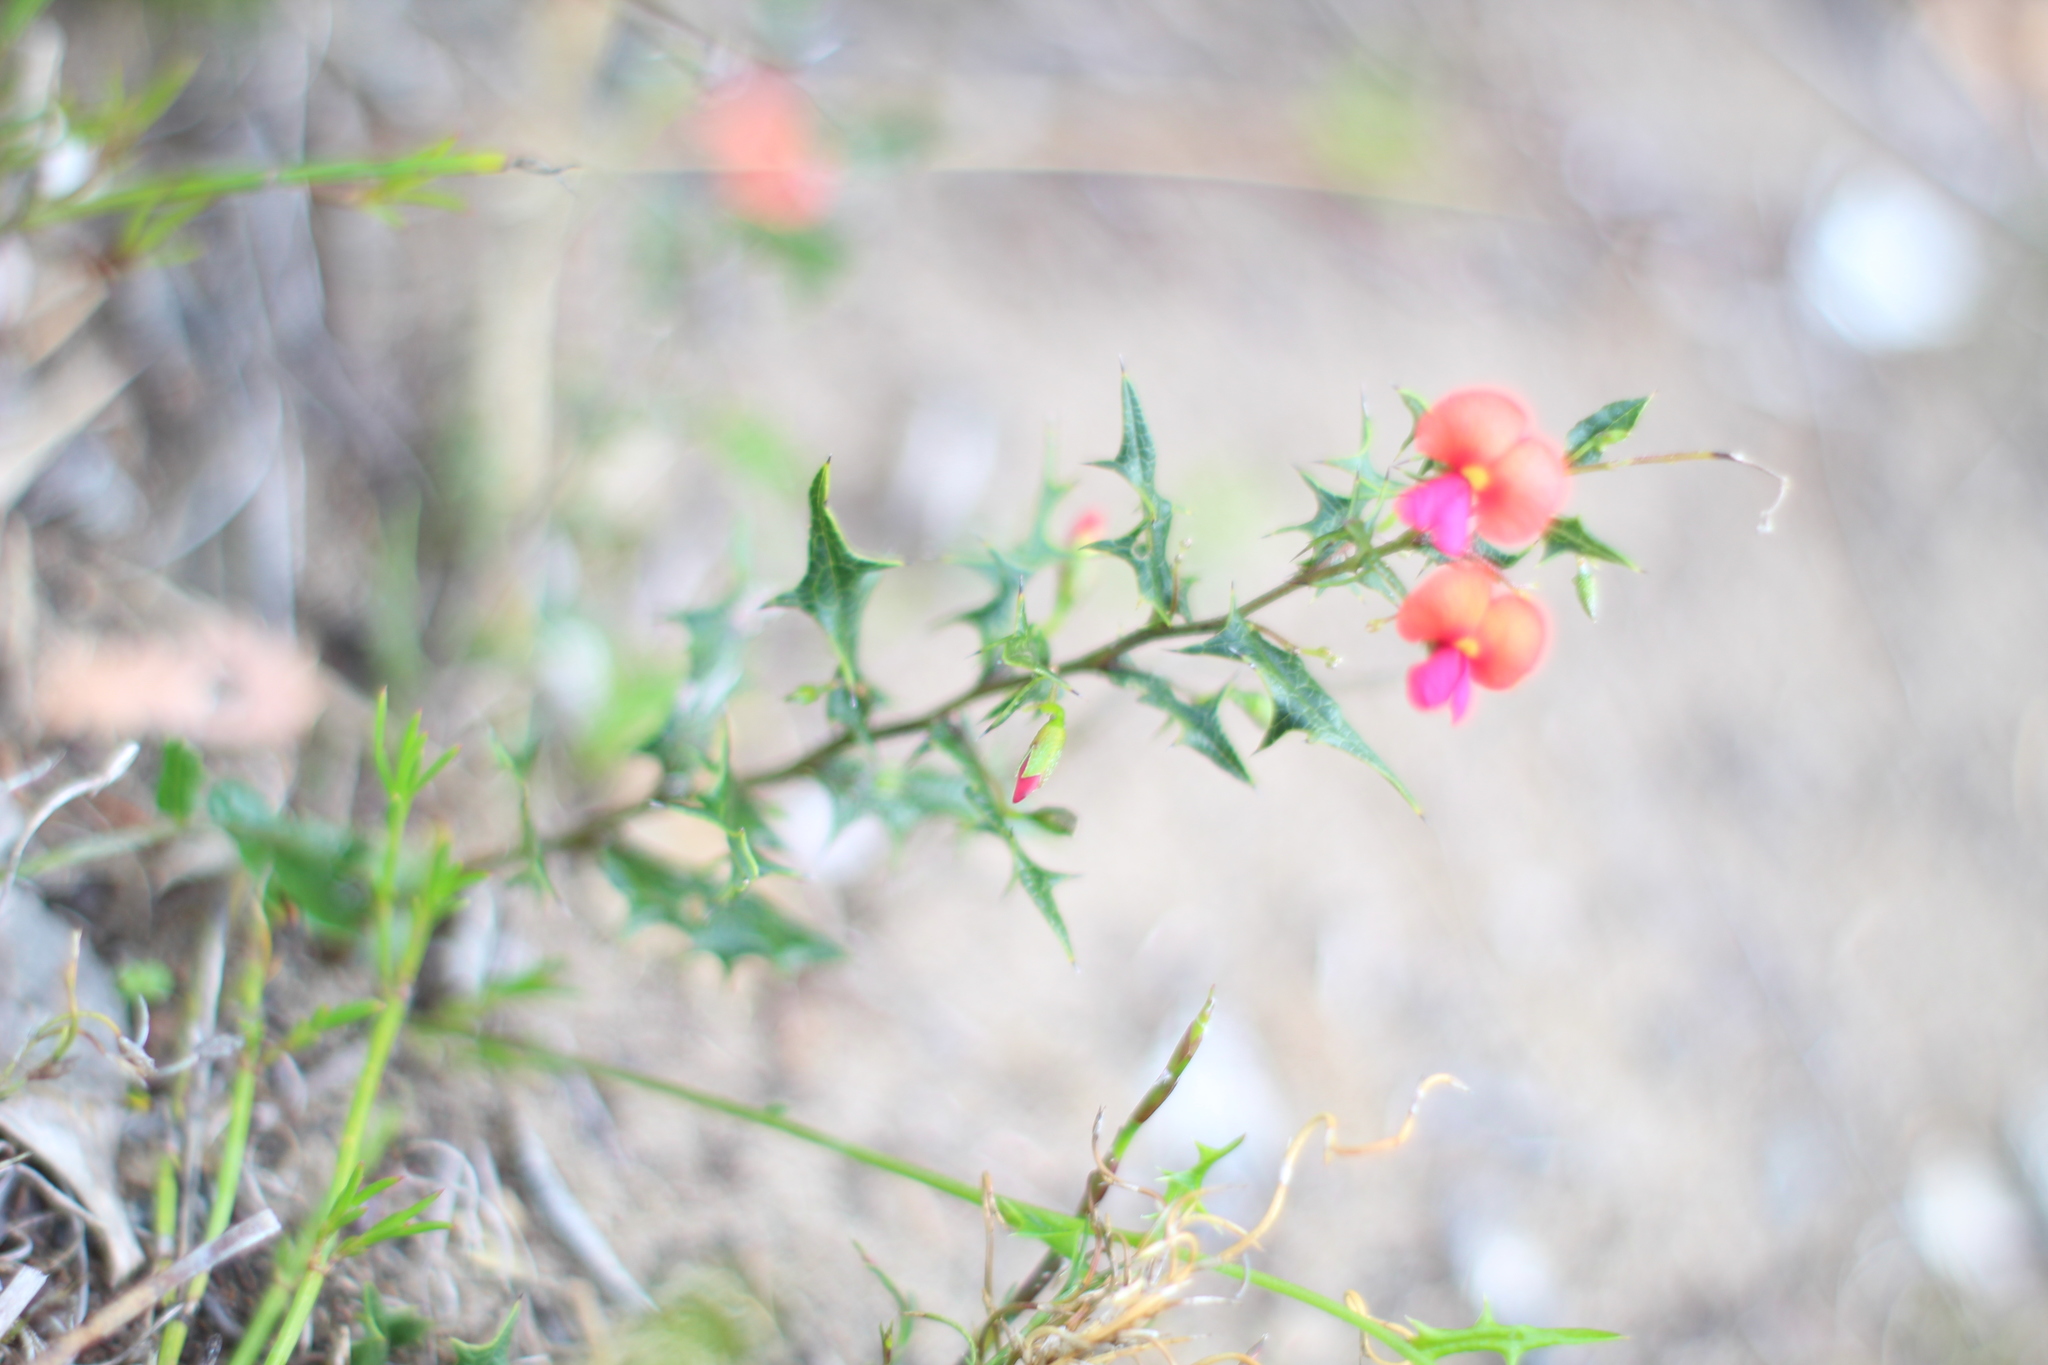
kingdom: Plantae
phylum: Tracheophyta
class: Magnoliopsida
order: Fabales
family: Fabaceae
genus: Chorizema
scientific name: Chorizema ilicifolium
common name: Holly flame-pea
